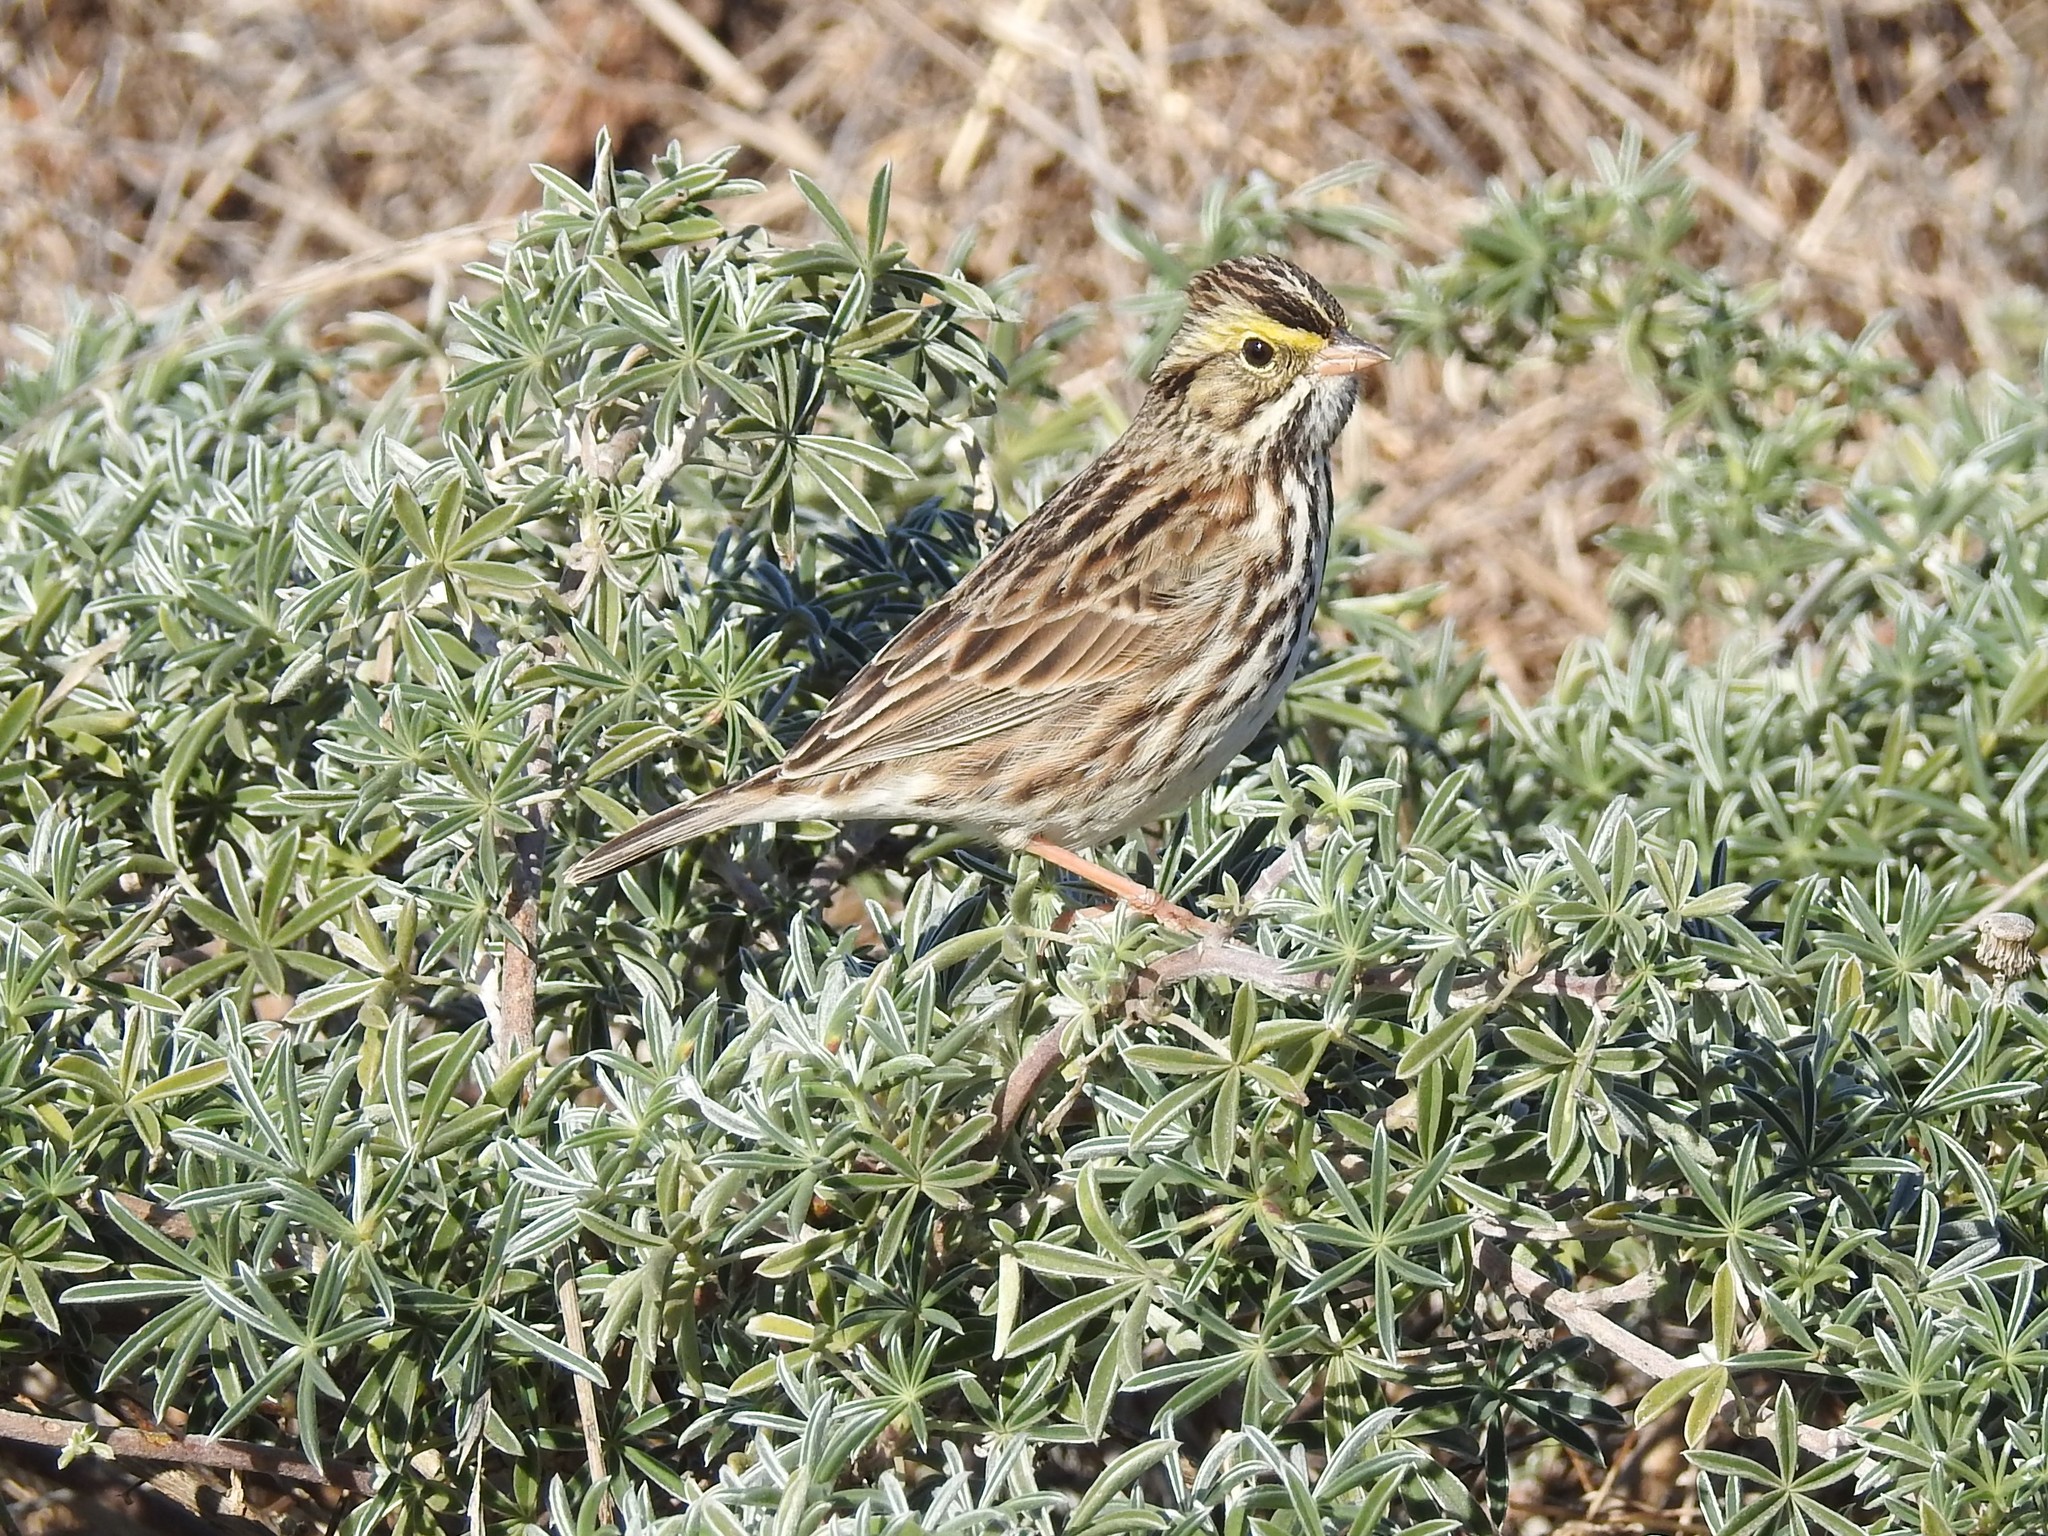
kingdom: Animalia
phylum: Chordata
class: Aves
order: Passeriformes
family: Passerellidae
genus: Passerculus
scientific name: Passerculus sandwichensis
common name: Savannah sparrow
